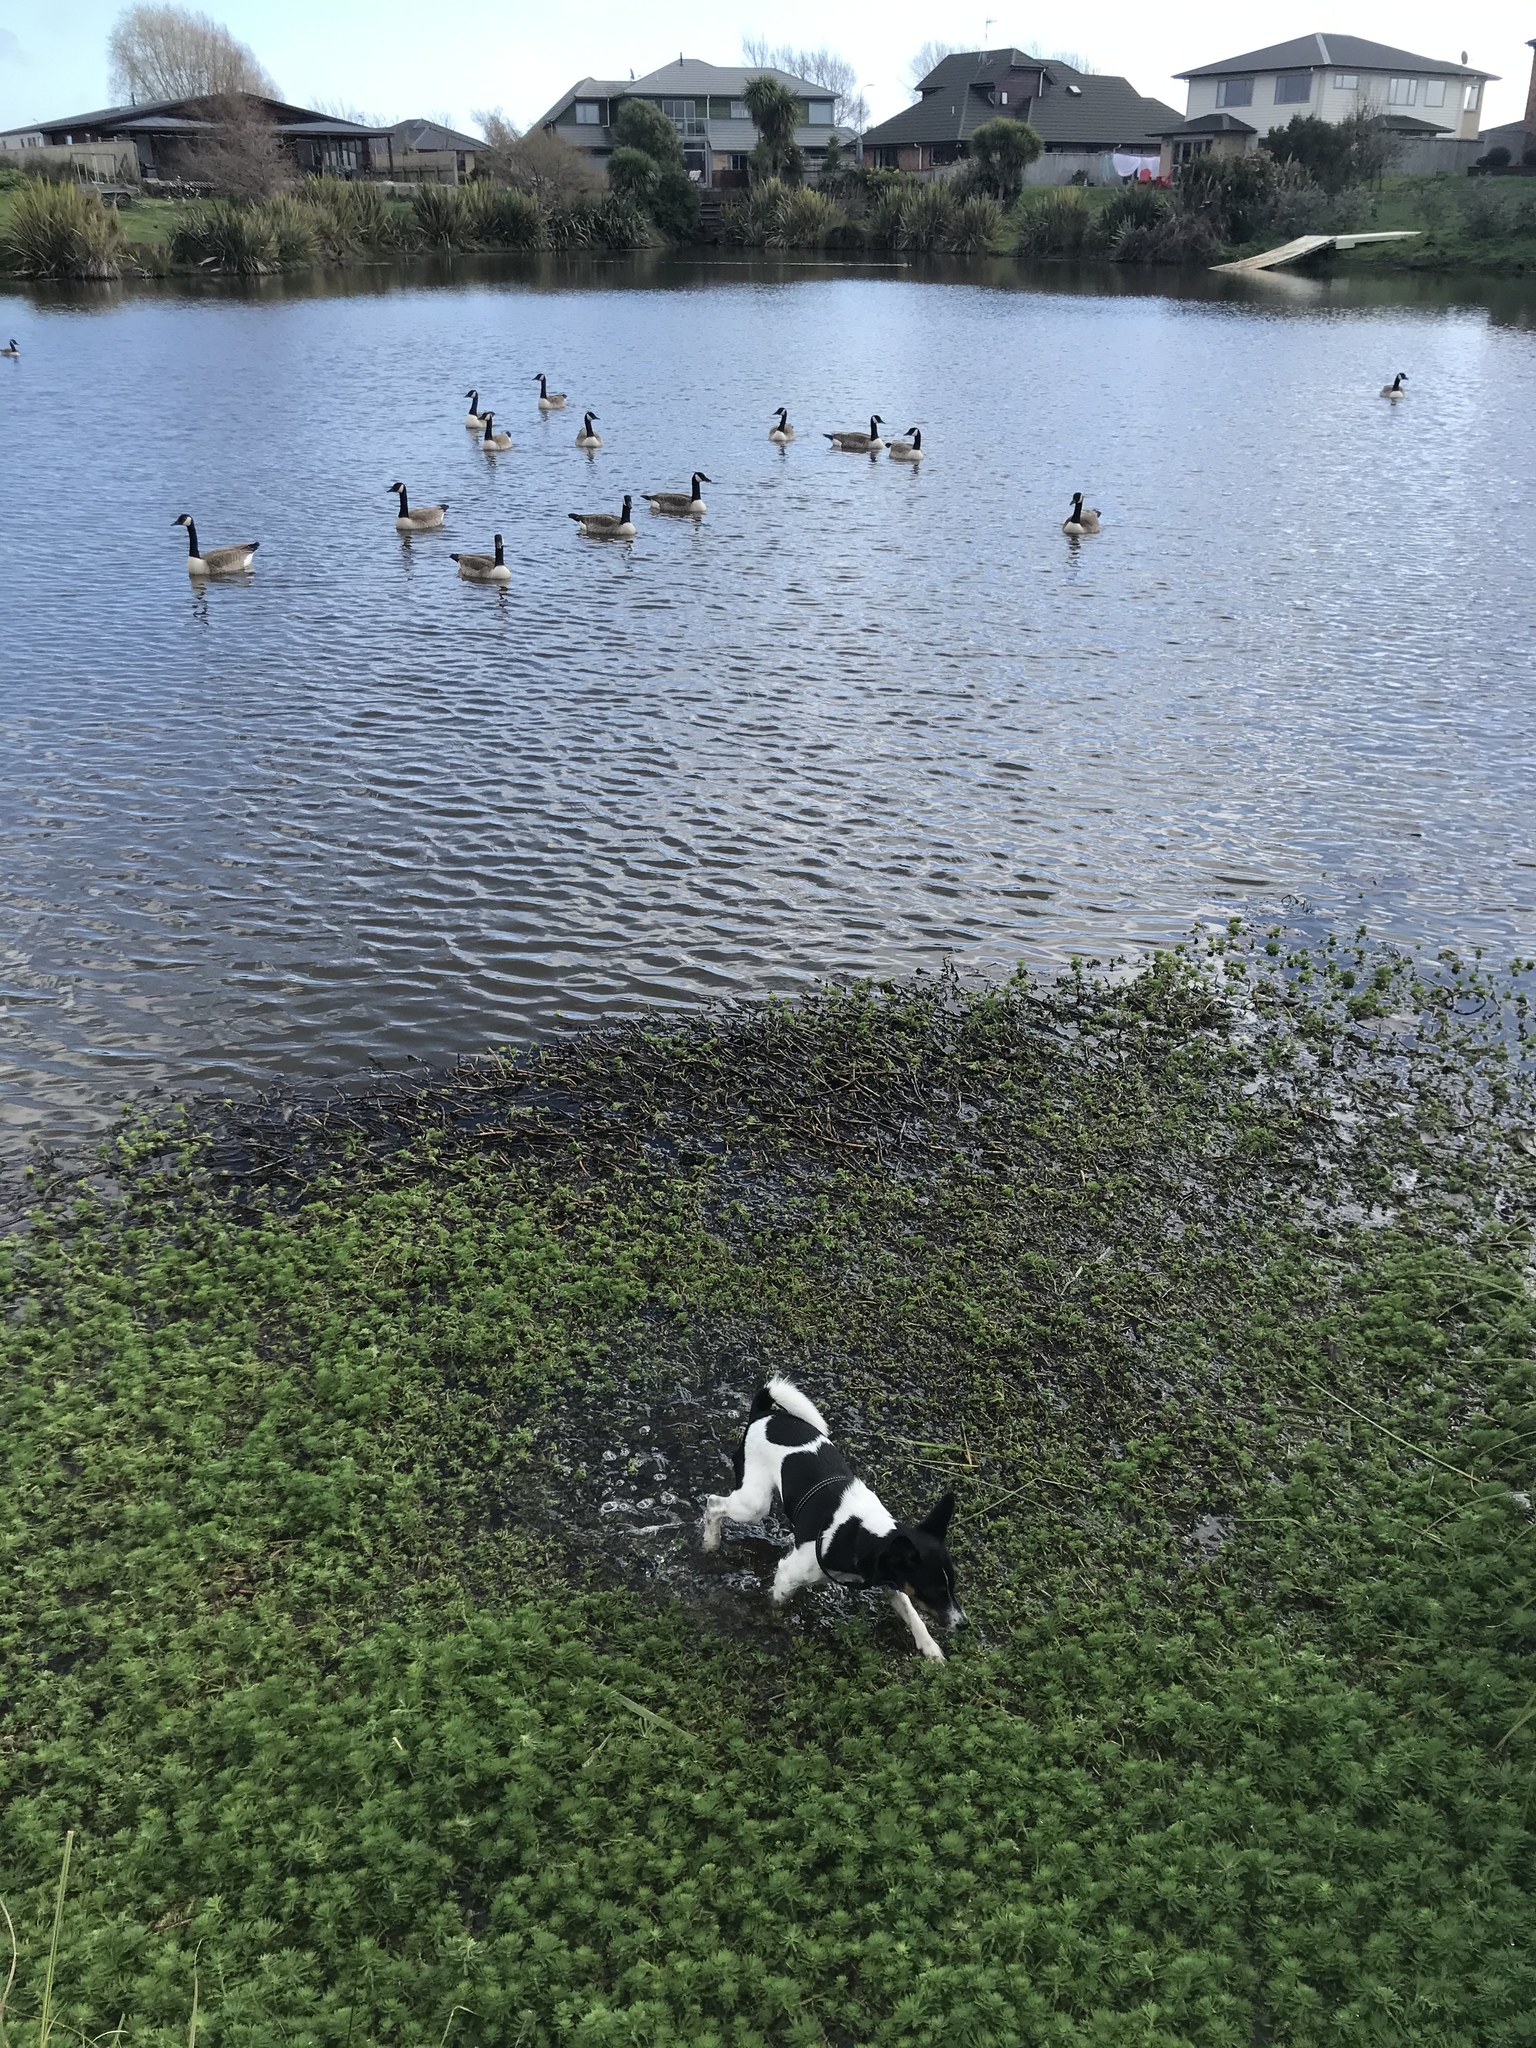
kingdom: Animalia
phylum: Chordata
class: Aves
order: Anseriformes
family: Anatidae
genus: Branta
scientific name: Branta canadensis
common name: Canada goose
